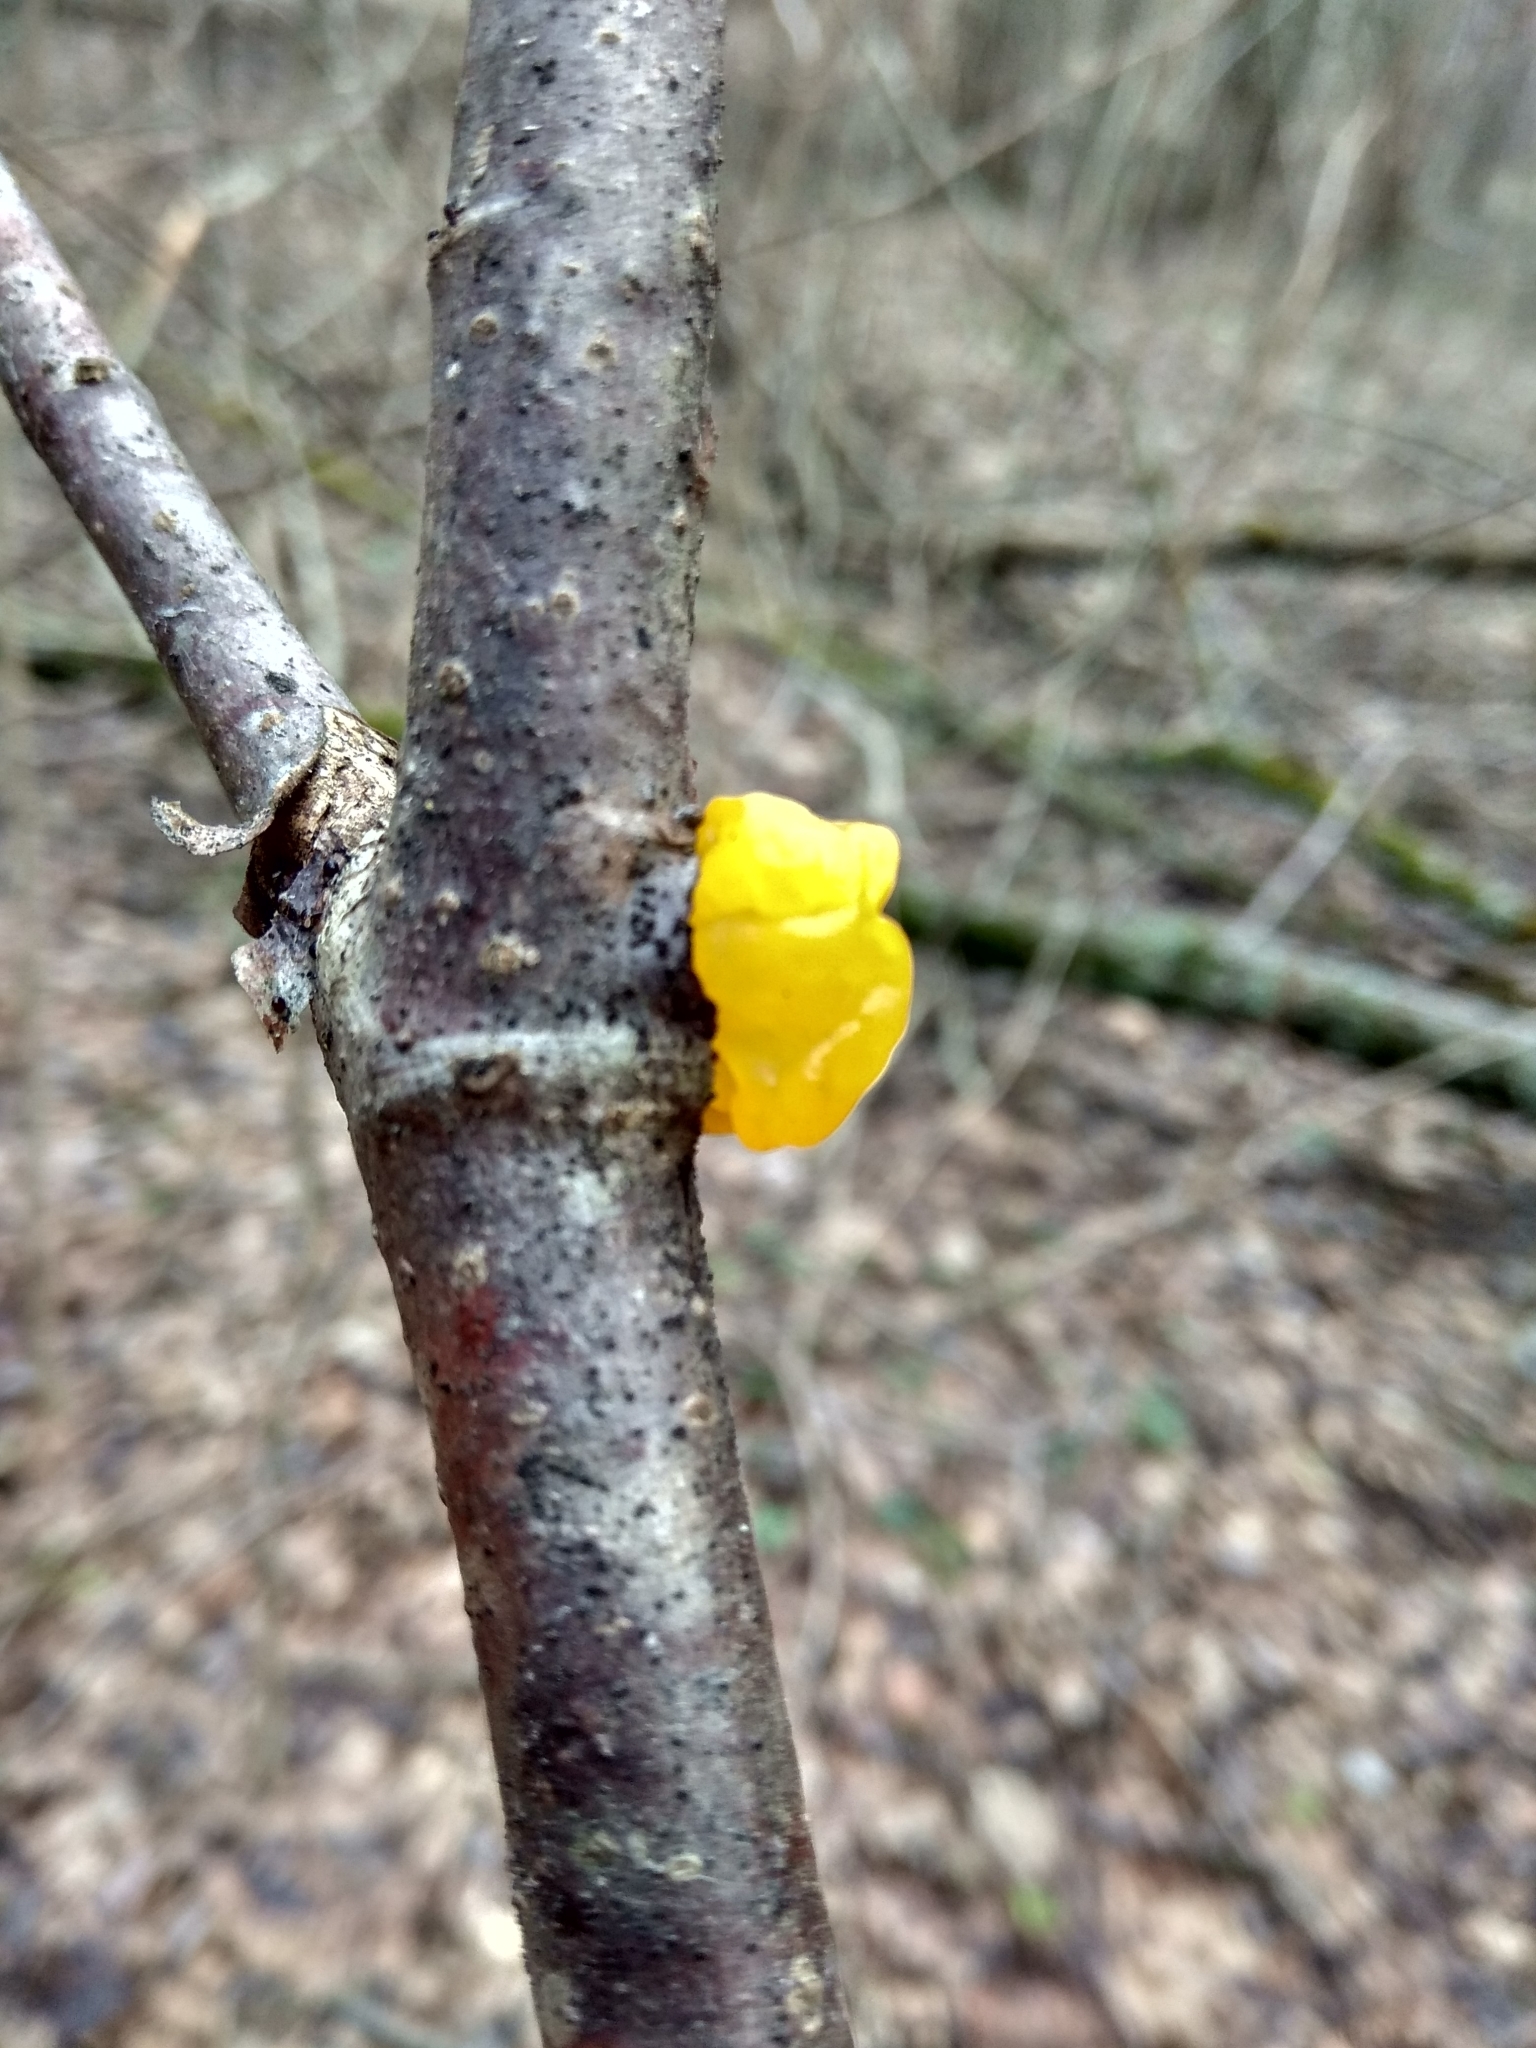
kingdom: Fungi
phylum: Basidiomycota
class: Tremellomycetes
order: Tremellales
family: Tremellaceae
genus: Tremella
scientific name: Tremella mesenterica
